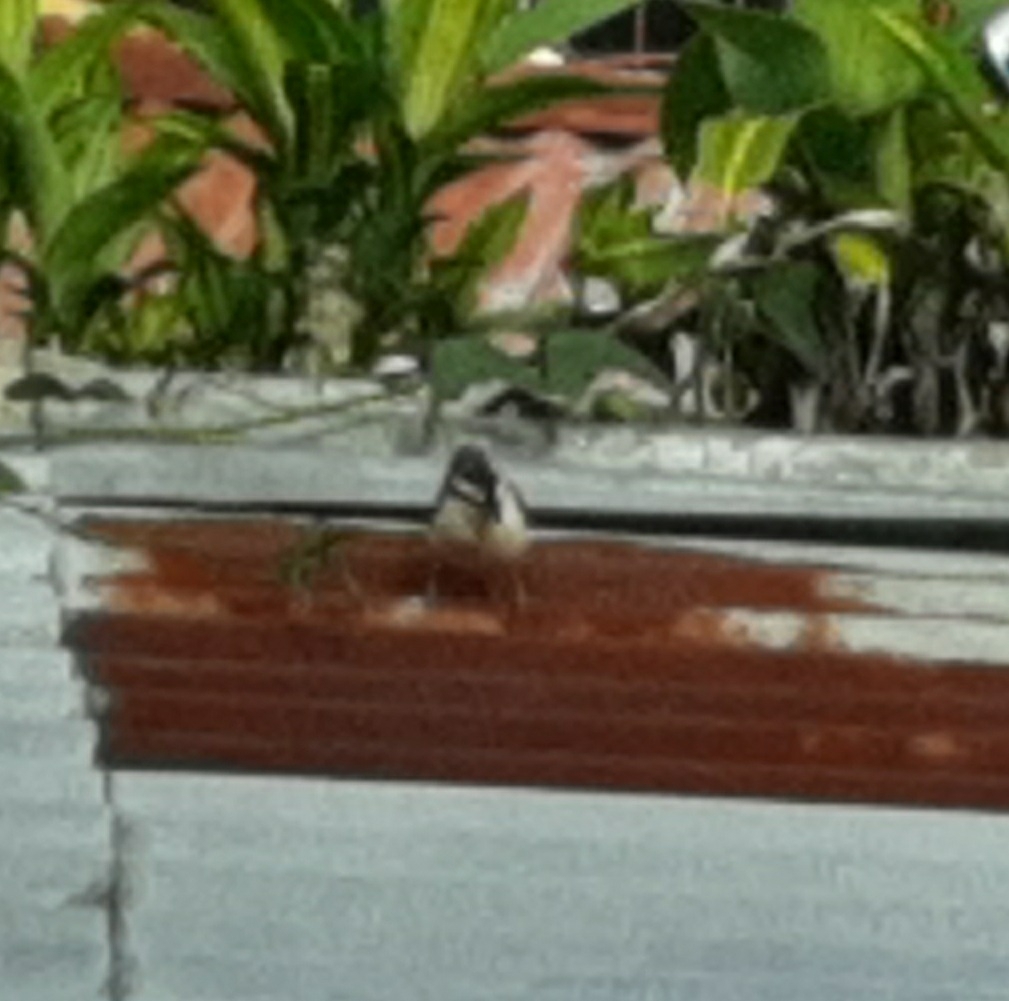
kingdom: Animalia
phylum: Chordata
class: Aves
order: Passeriformes
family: Troglodytidae
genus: Campylorhynchus
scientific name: Campylorhynchus rufinucha
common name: Rufous-naped wren
